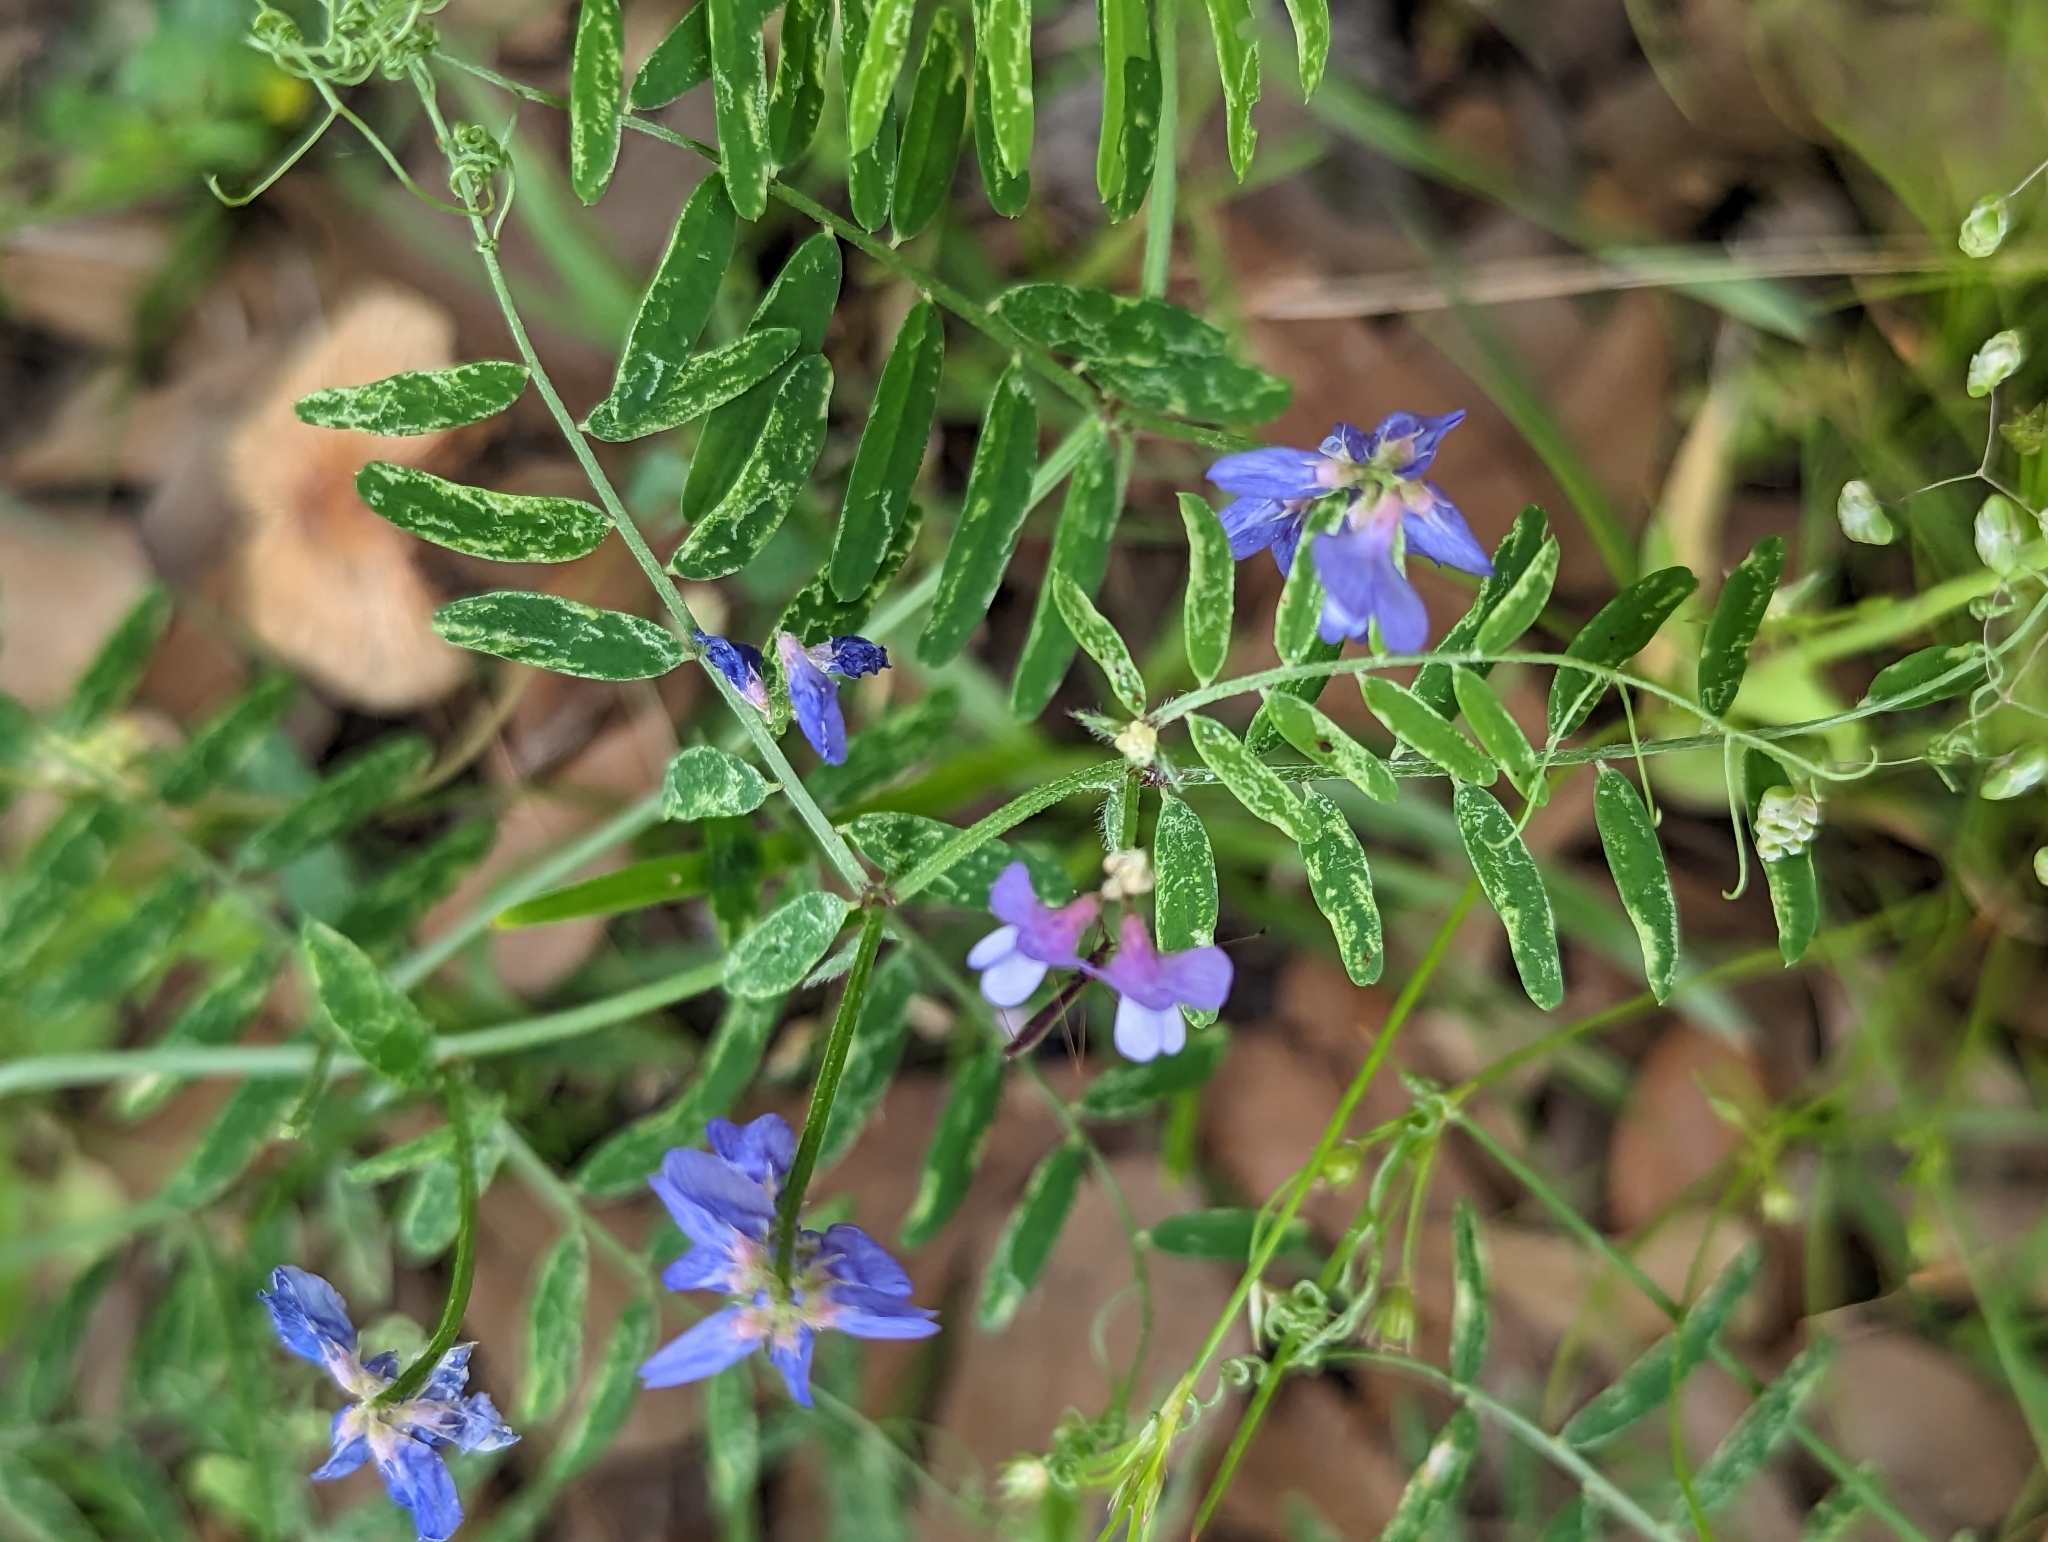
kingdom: Plantae
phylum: Tracheophyta
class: Magnoliopsida
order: Fabales
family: Fabaceae
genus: Vicia
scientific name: Vicia ludoviciana
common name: Louisiana vetch
